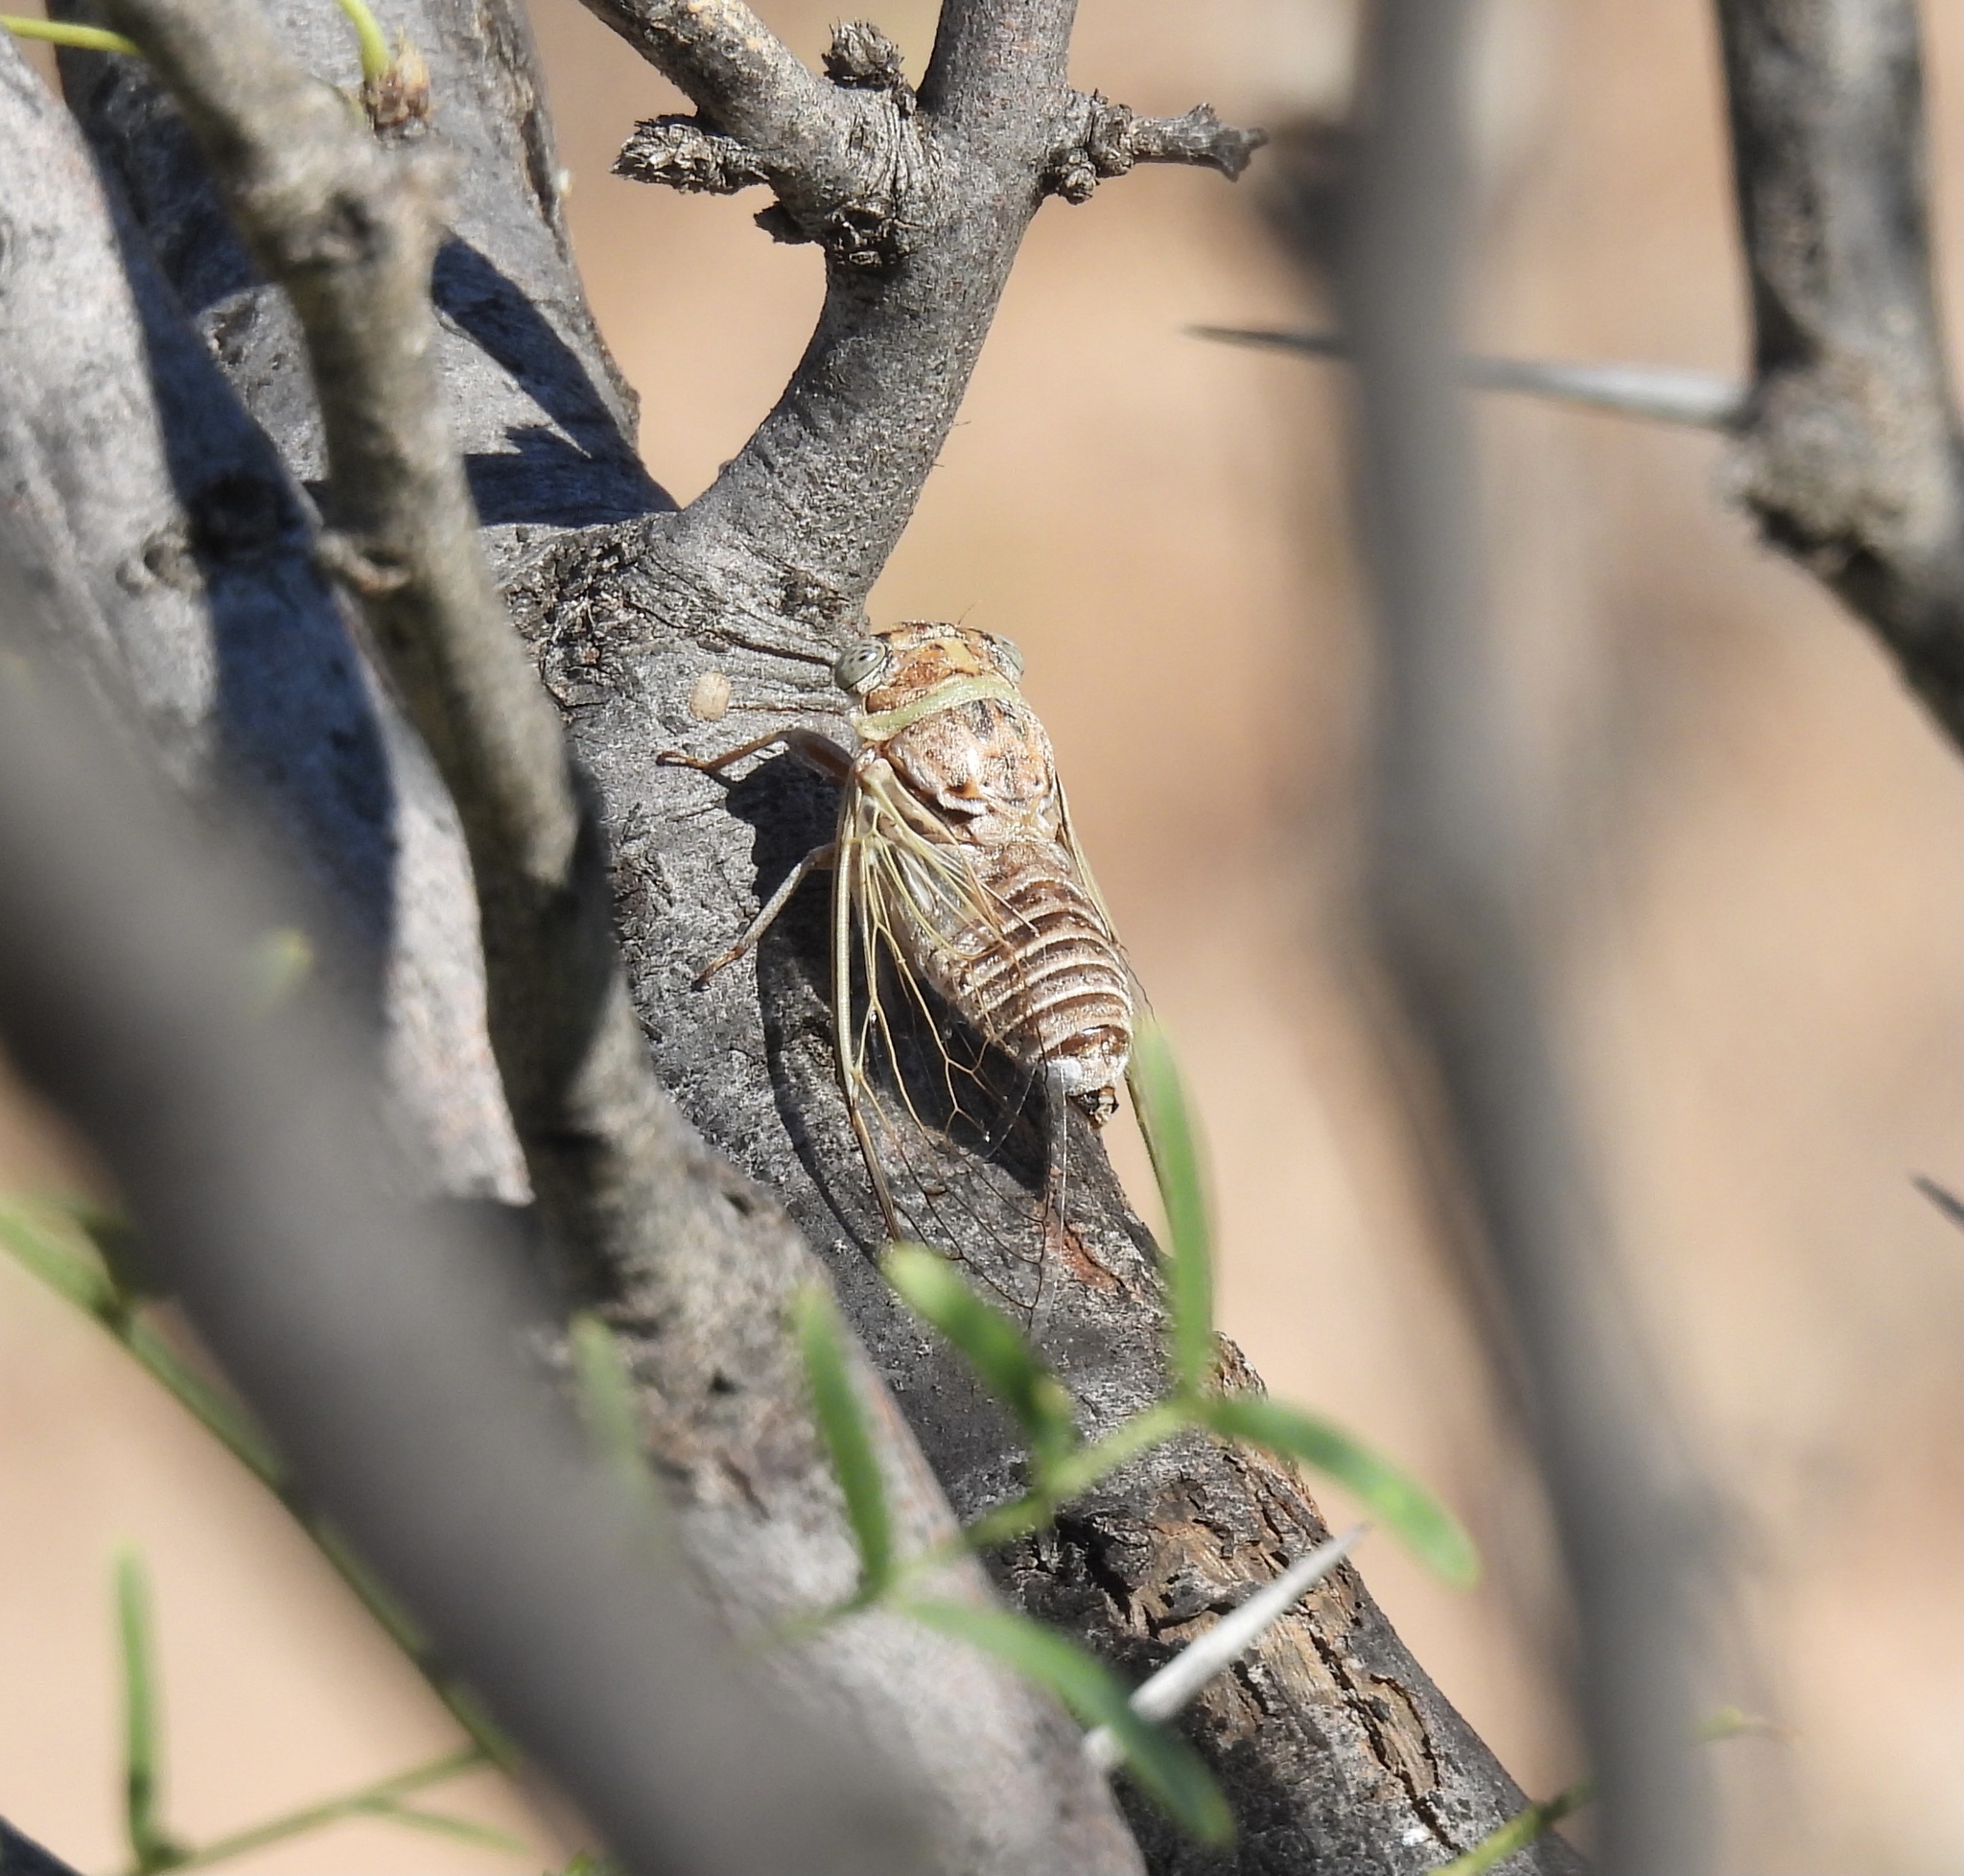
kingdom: Animalia
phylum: Arthropoda
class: Insecta
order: Hemiptera
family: Cicadidae
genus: Diceroprocta
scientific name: Diceroprocta texana
